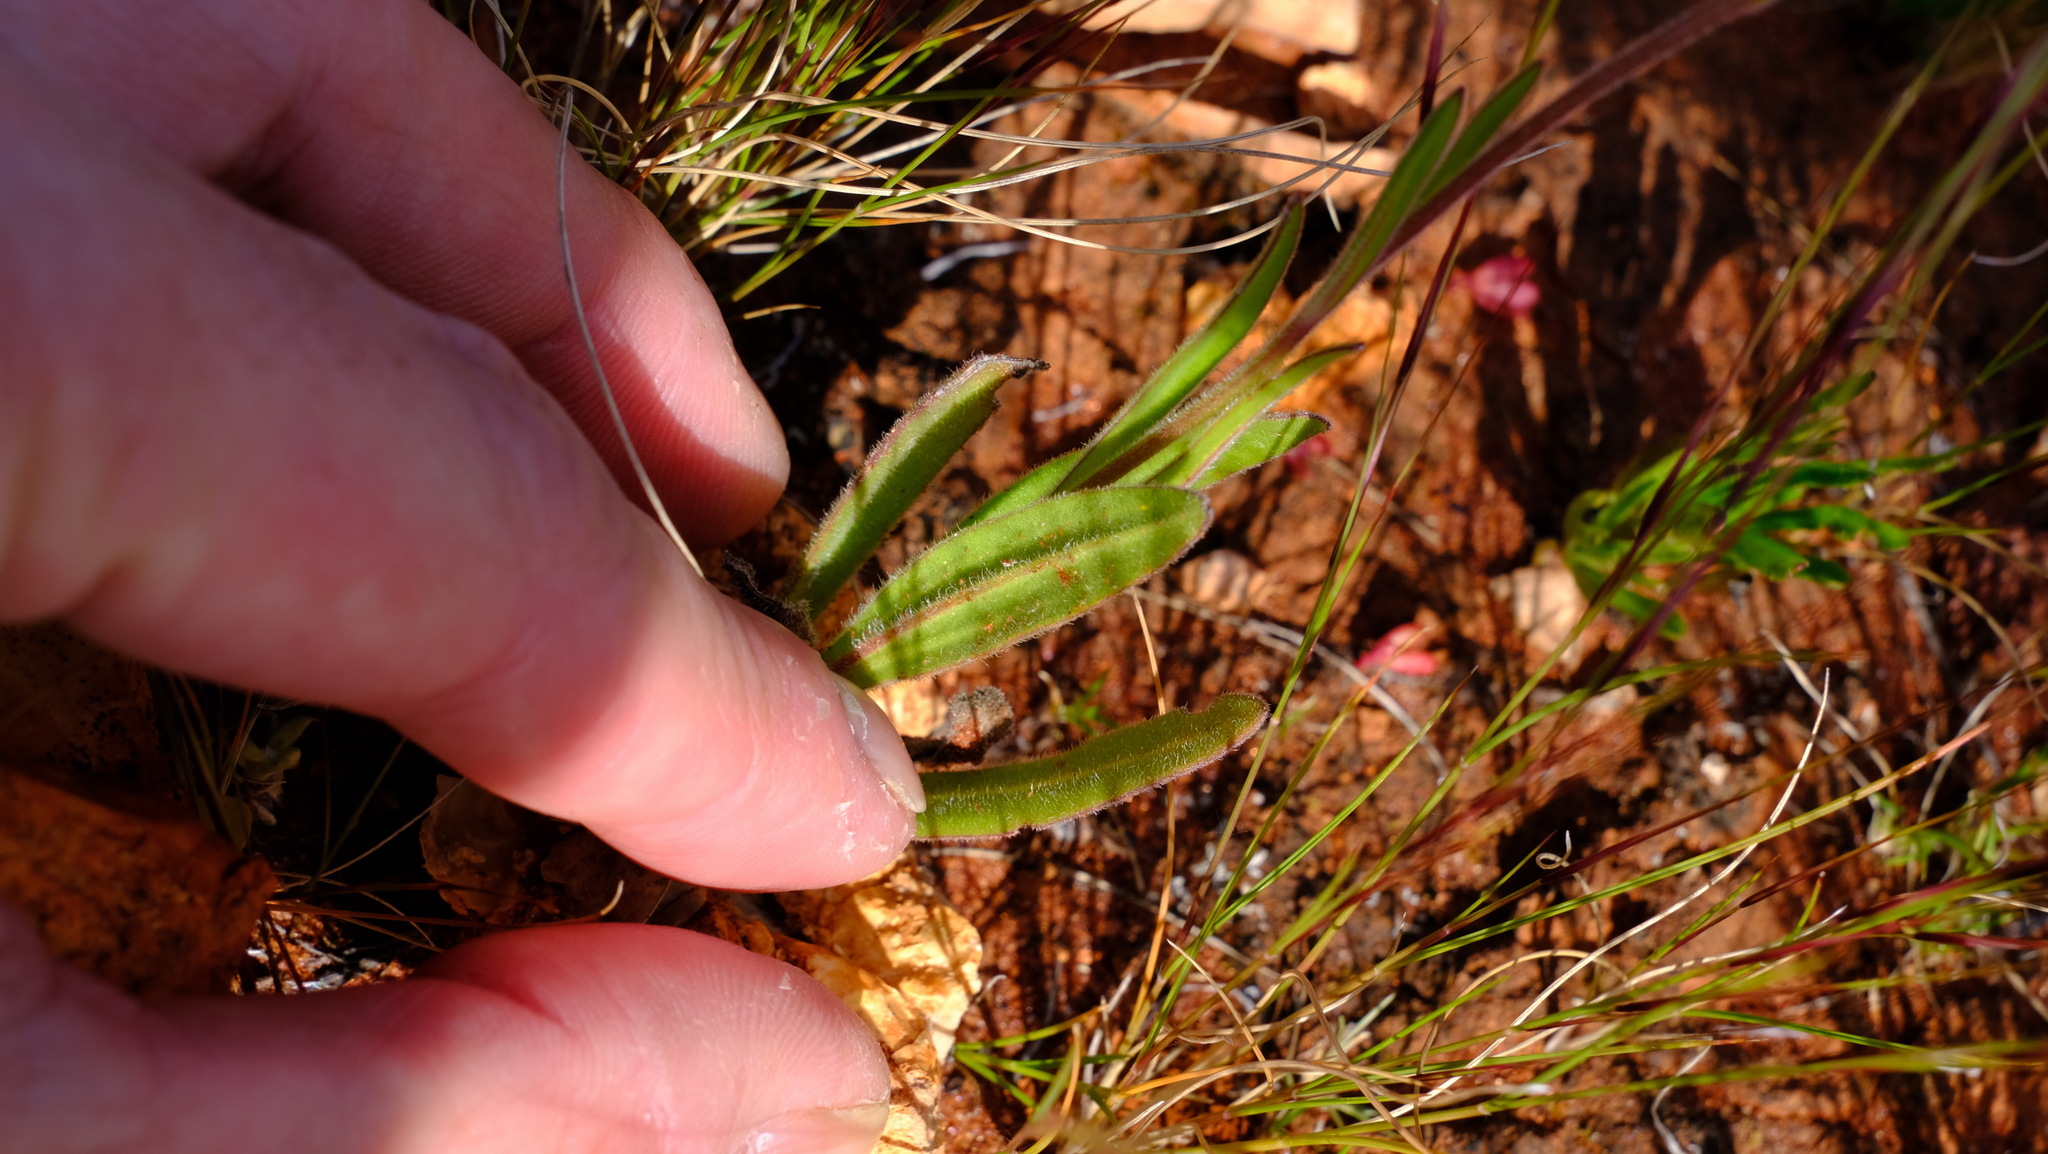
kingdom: Plantae
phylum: Tracheophyta
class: Magnoliopsida
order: Asterales
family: Asteraceae
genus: Schoenia
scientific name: Schoenia cassiniana
